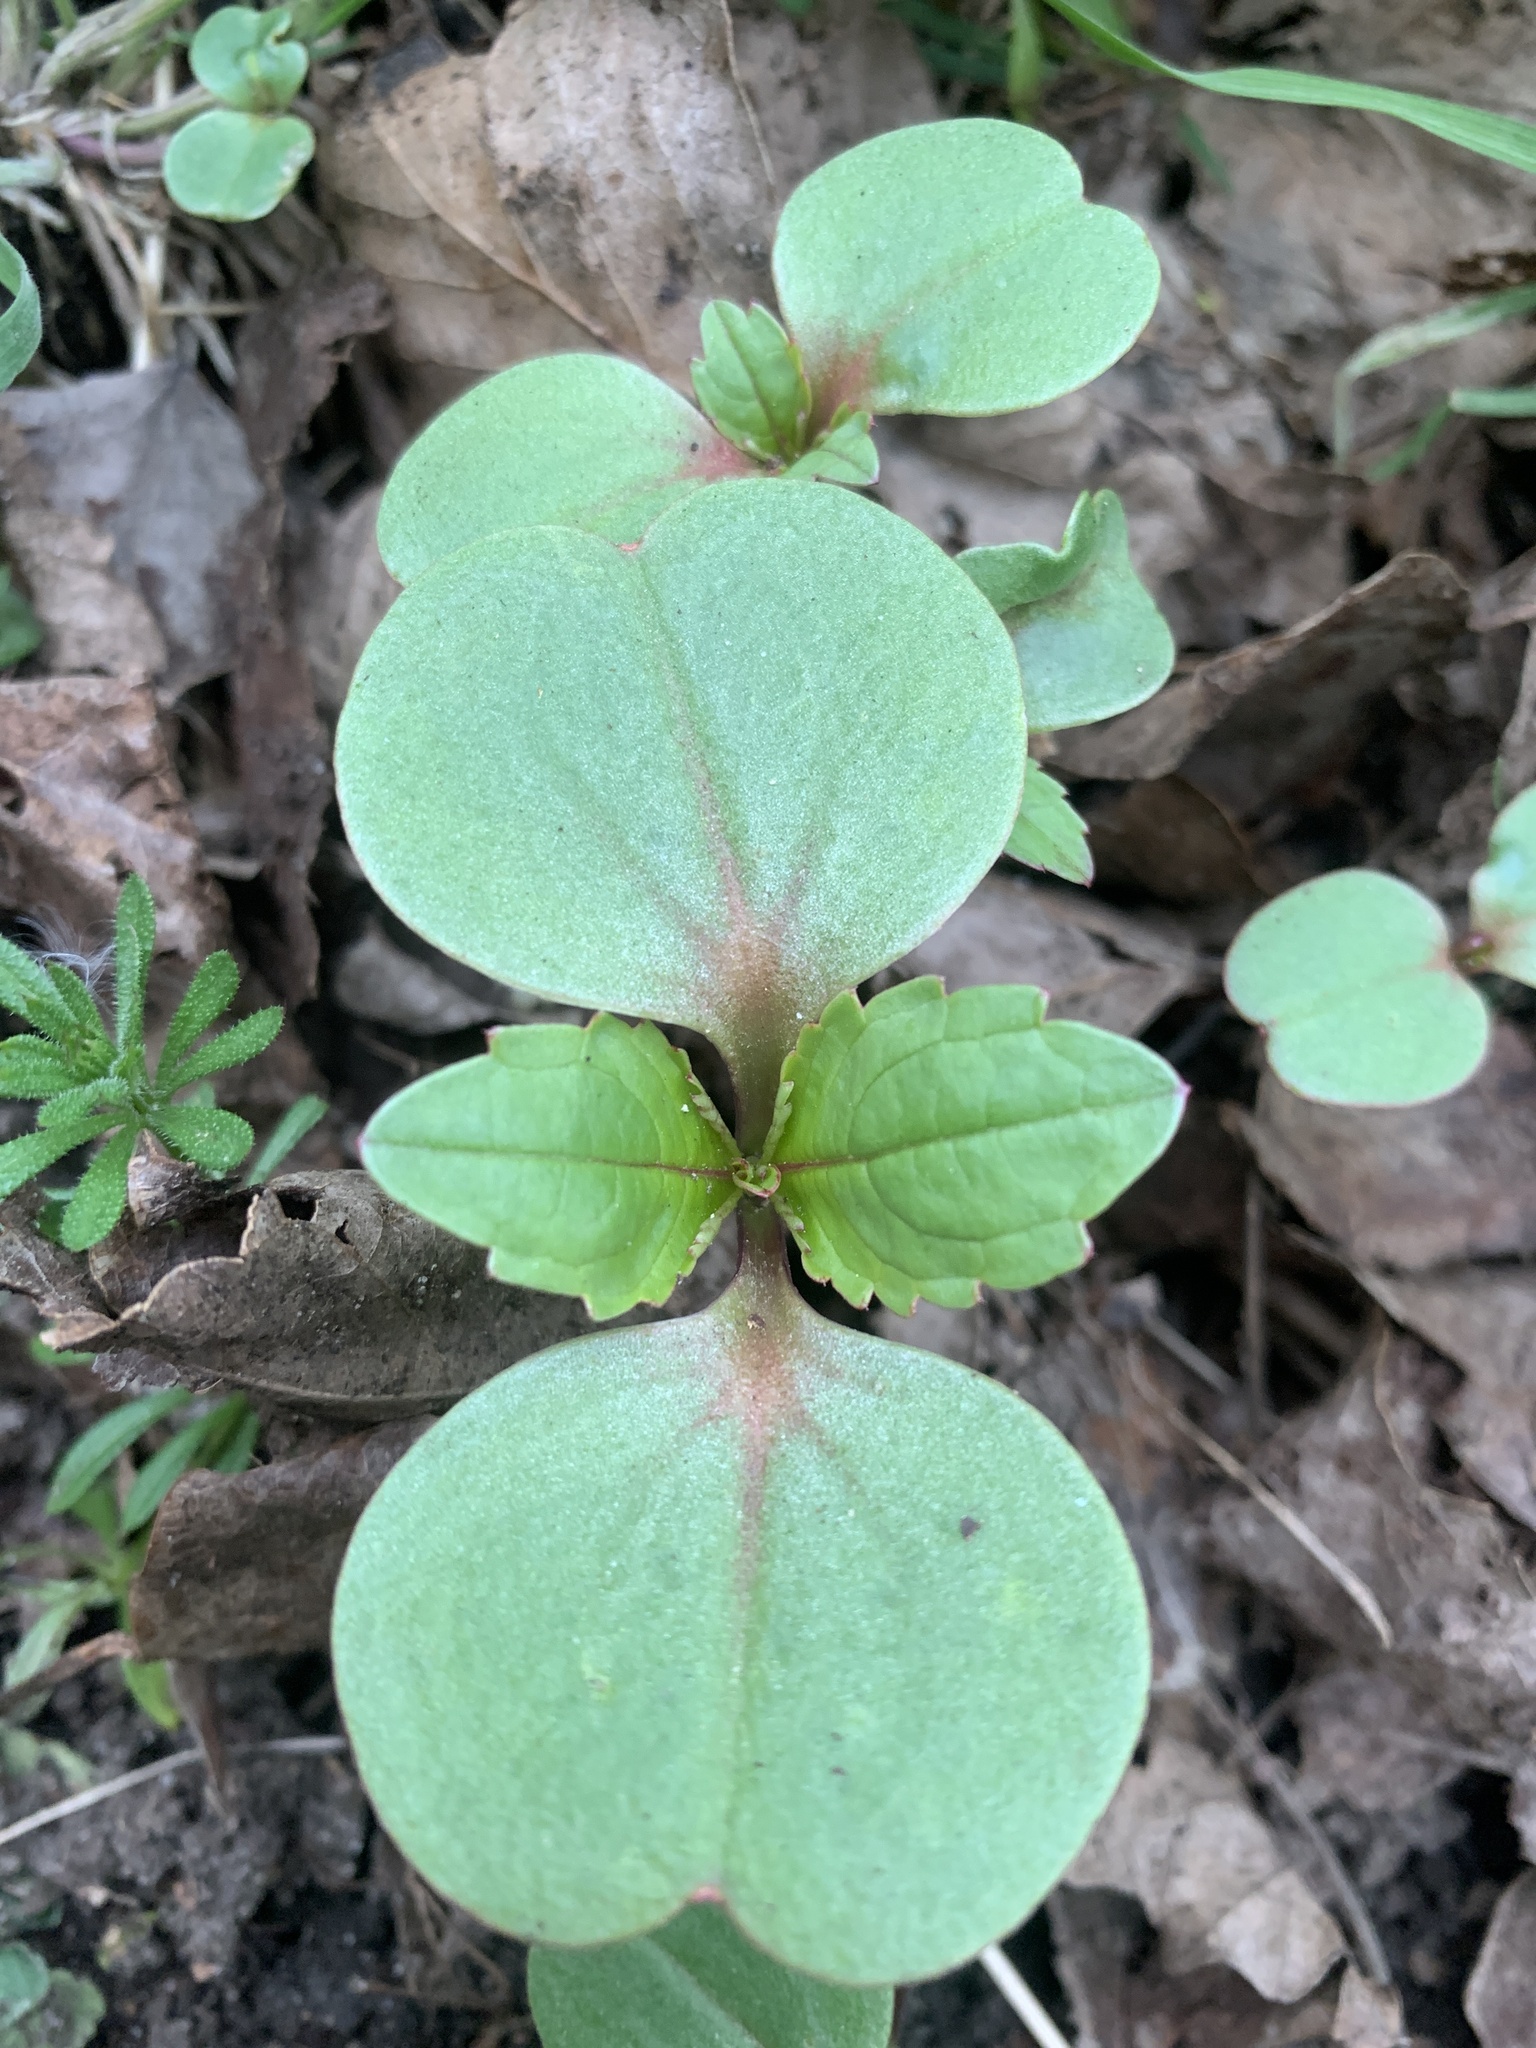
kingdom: Plantae
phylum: Tracheophyta
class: Magnoliopsida
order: Ericales
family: Balsaminaceae
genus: Impatiens
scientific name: Impatiens glandulifera
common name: Himalayan balsam
